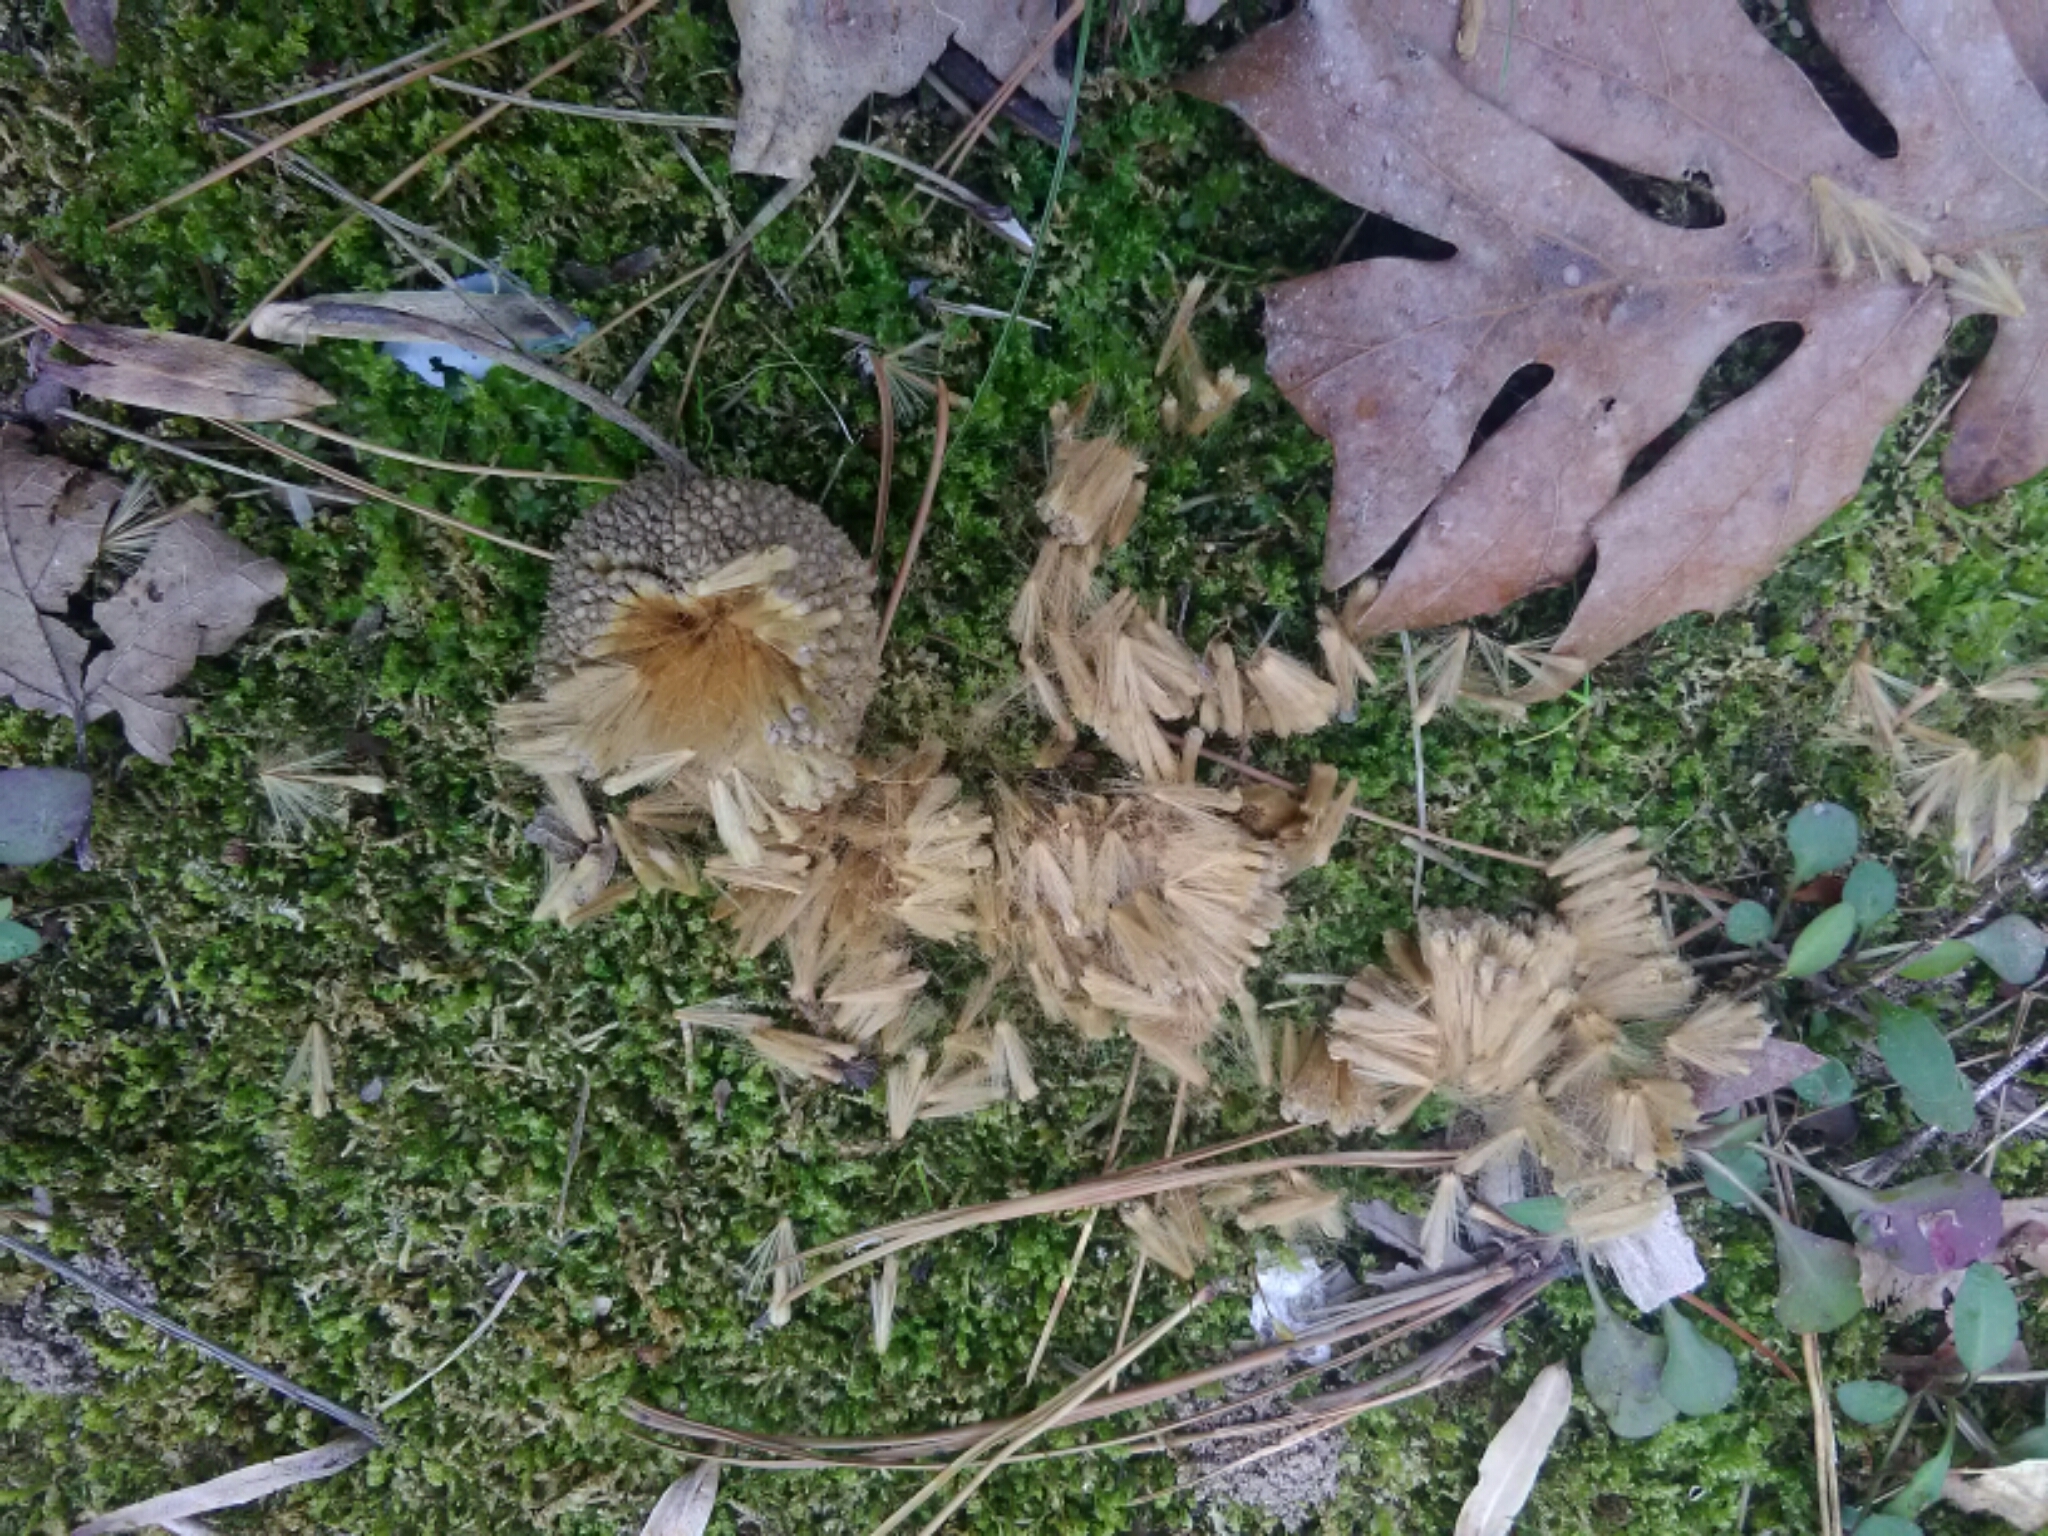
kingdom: Plantae
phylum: Tracheophyta
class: Magnoliopsida
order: Proteales
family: Platanaceae
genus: Platanus
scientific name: Platanus occidentalis
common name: American sycamore
